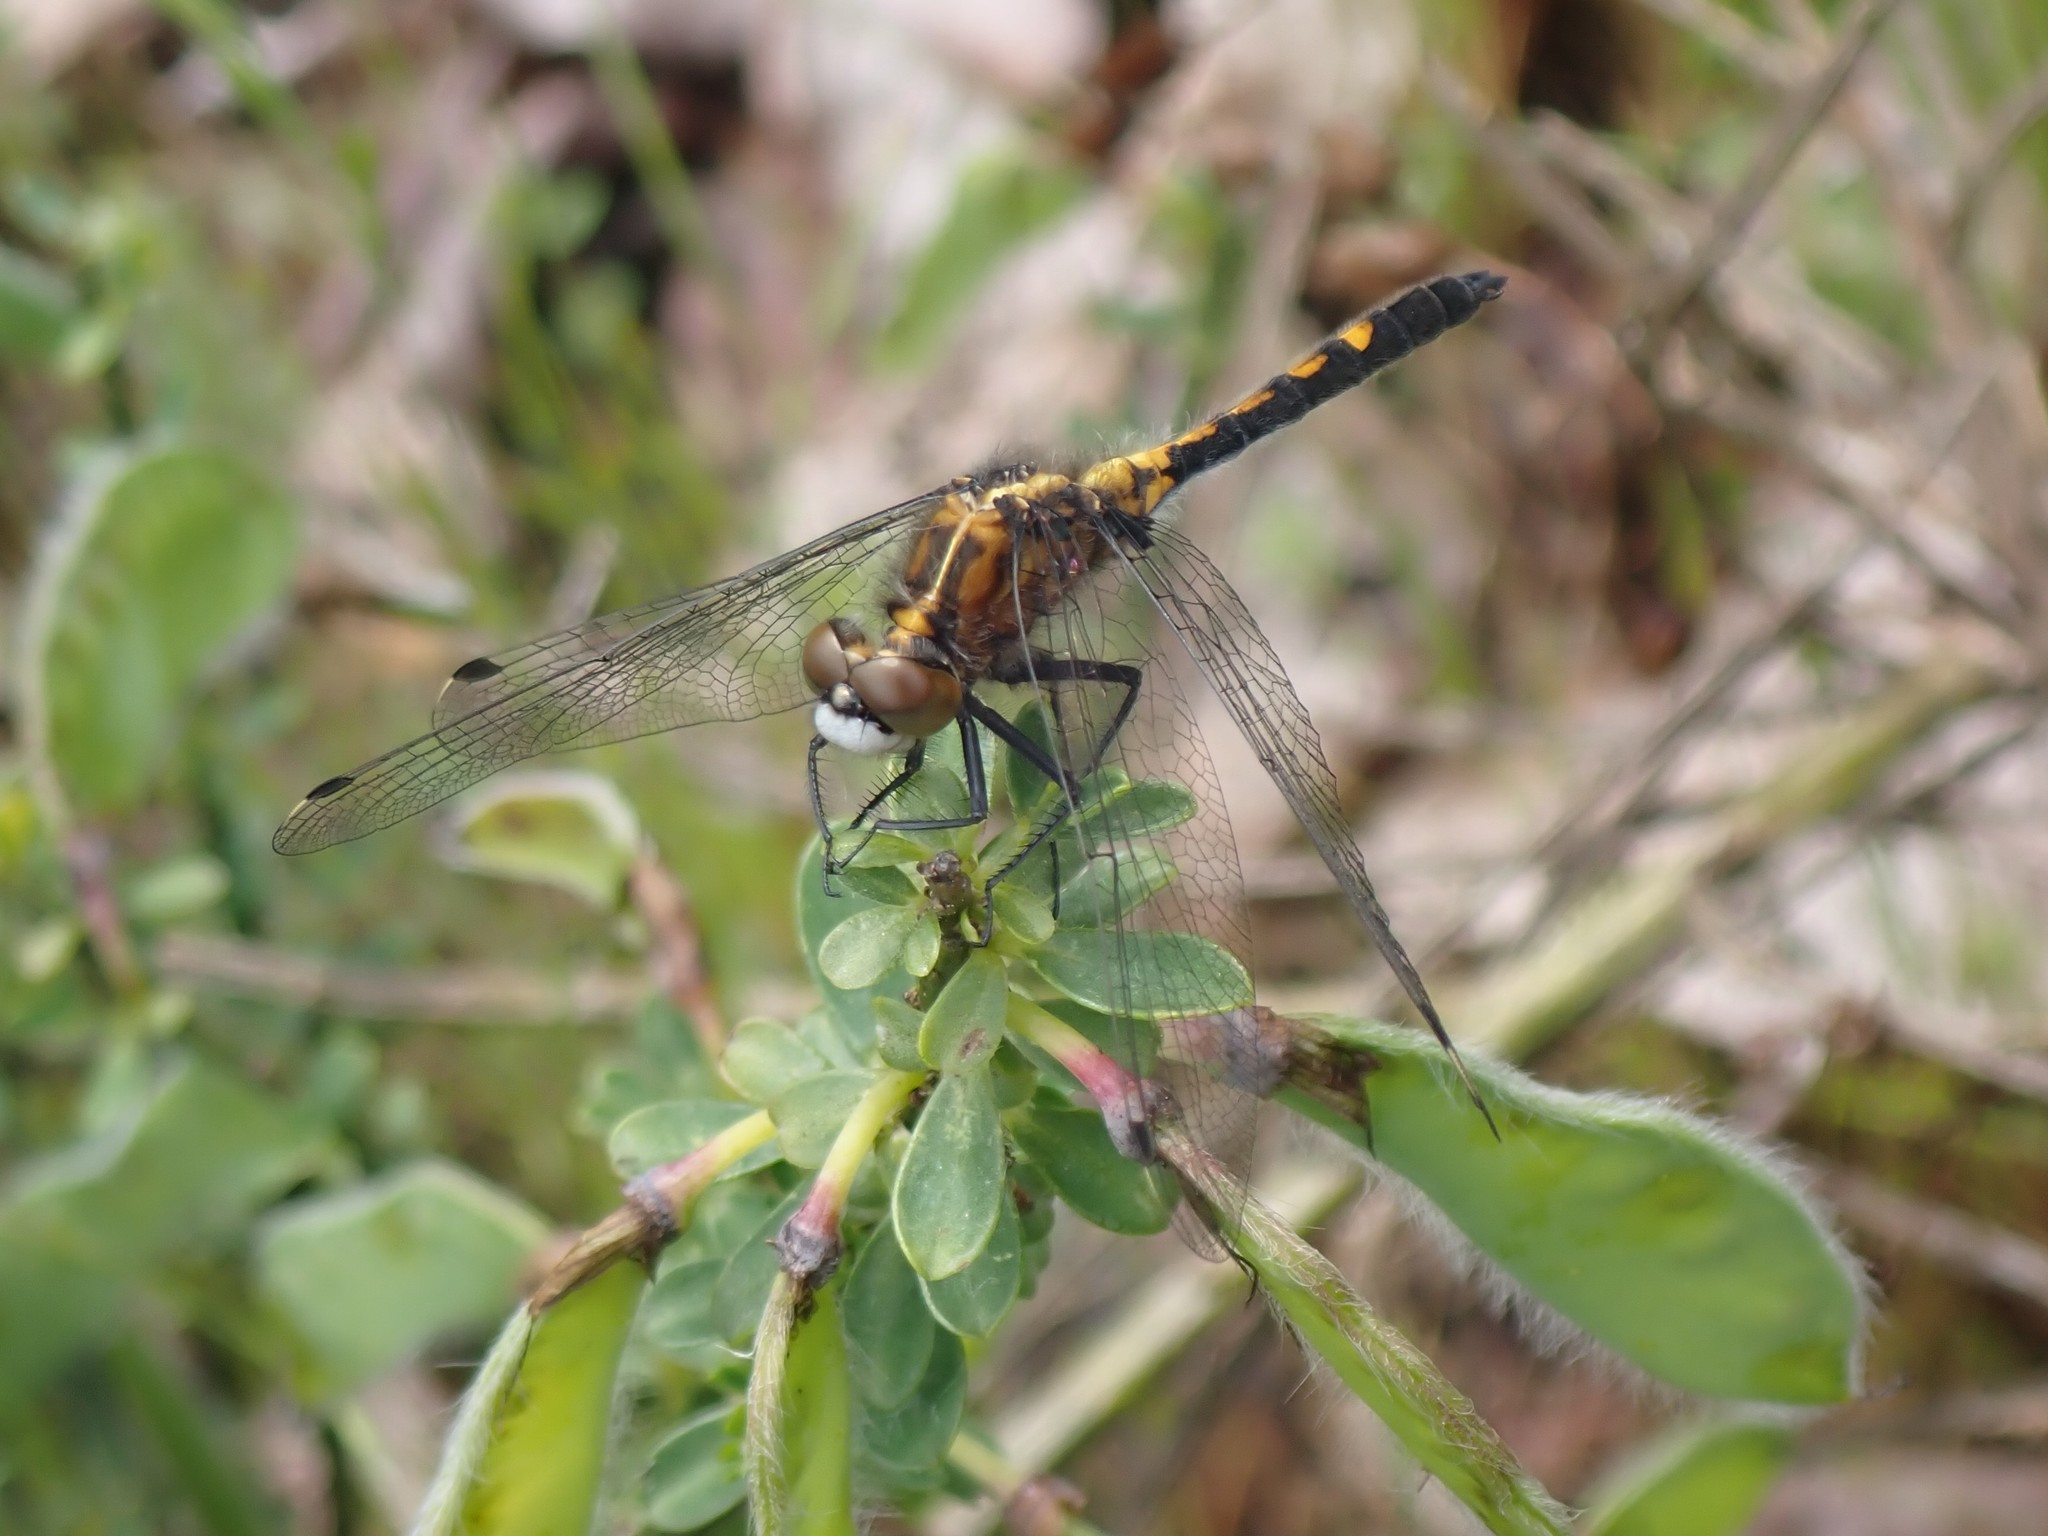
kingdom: Animalia
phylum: Arthropoda
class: Insecta
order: Odonata
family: Libellulidae
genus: Leucorrhinia
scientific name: Leucorrhinia intacta
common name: Dot-tailed whiteface
